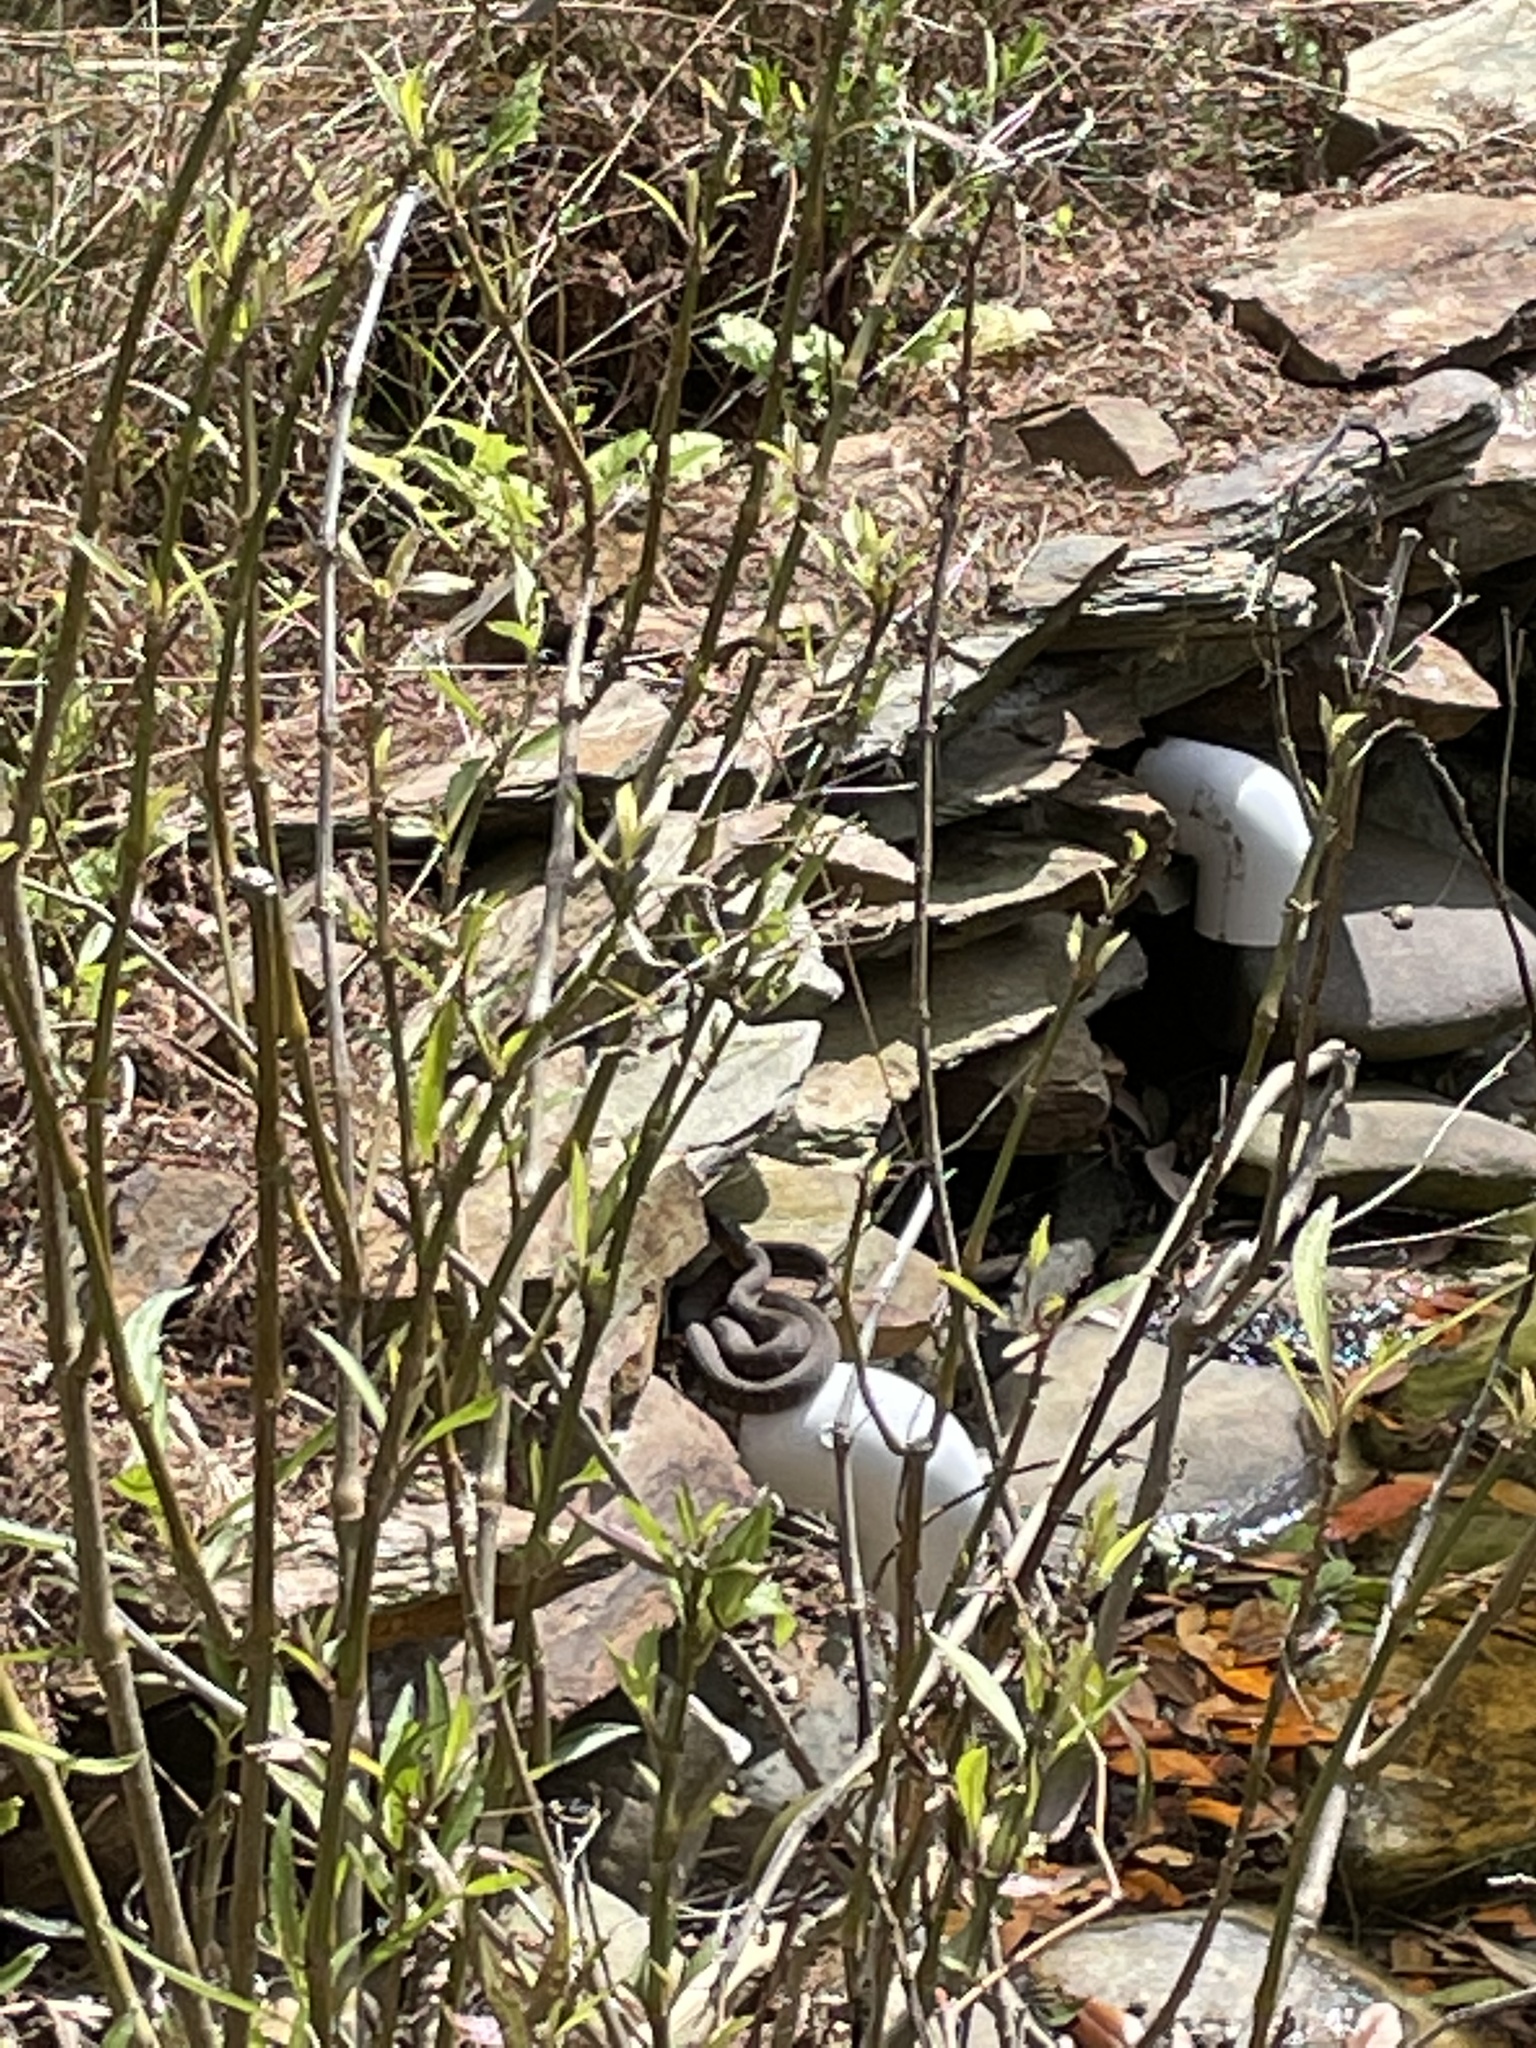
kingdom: Animalia
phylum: Chordata
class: Squamata
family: Colubridae
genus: Nerodia
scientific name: Nerodia fasciata
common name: Southern water snake
